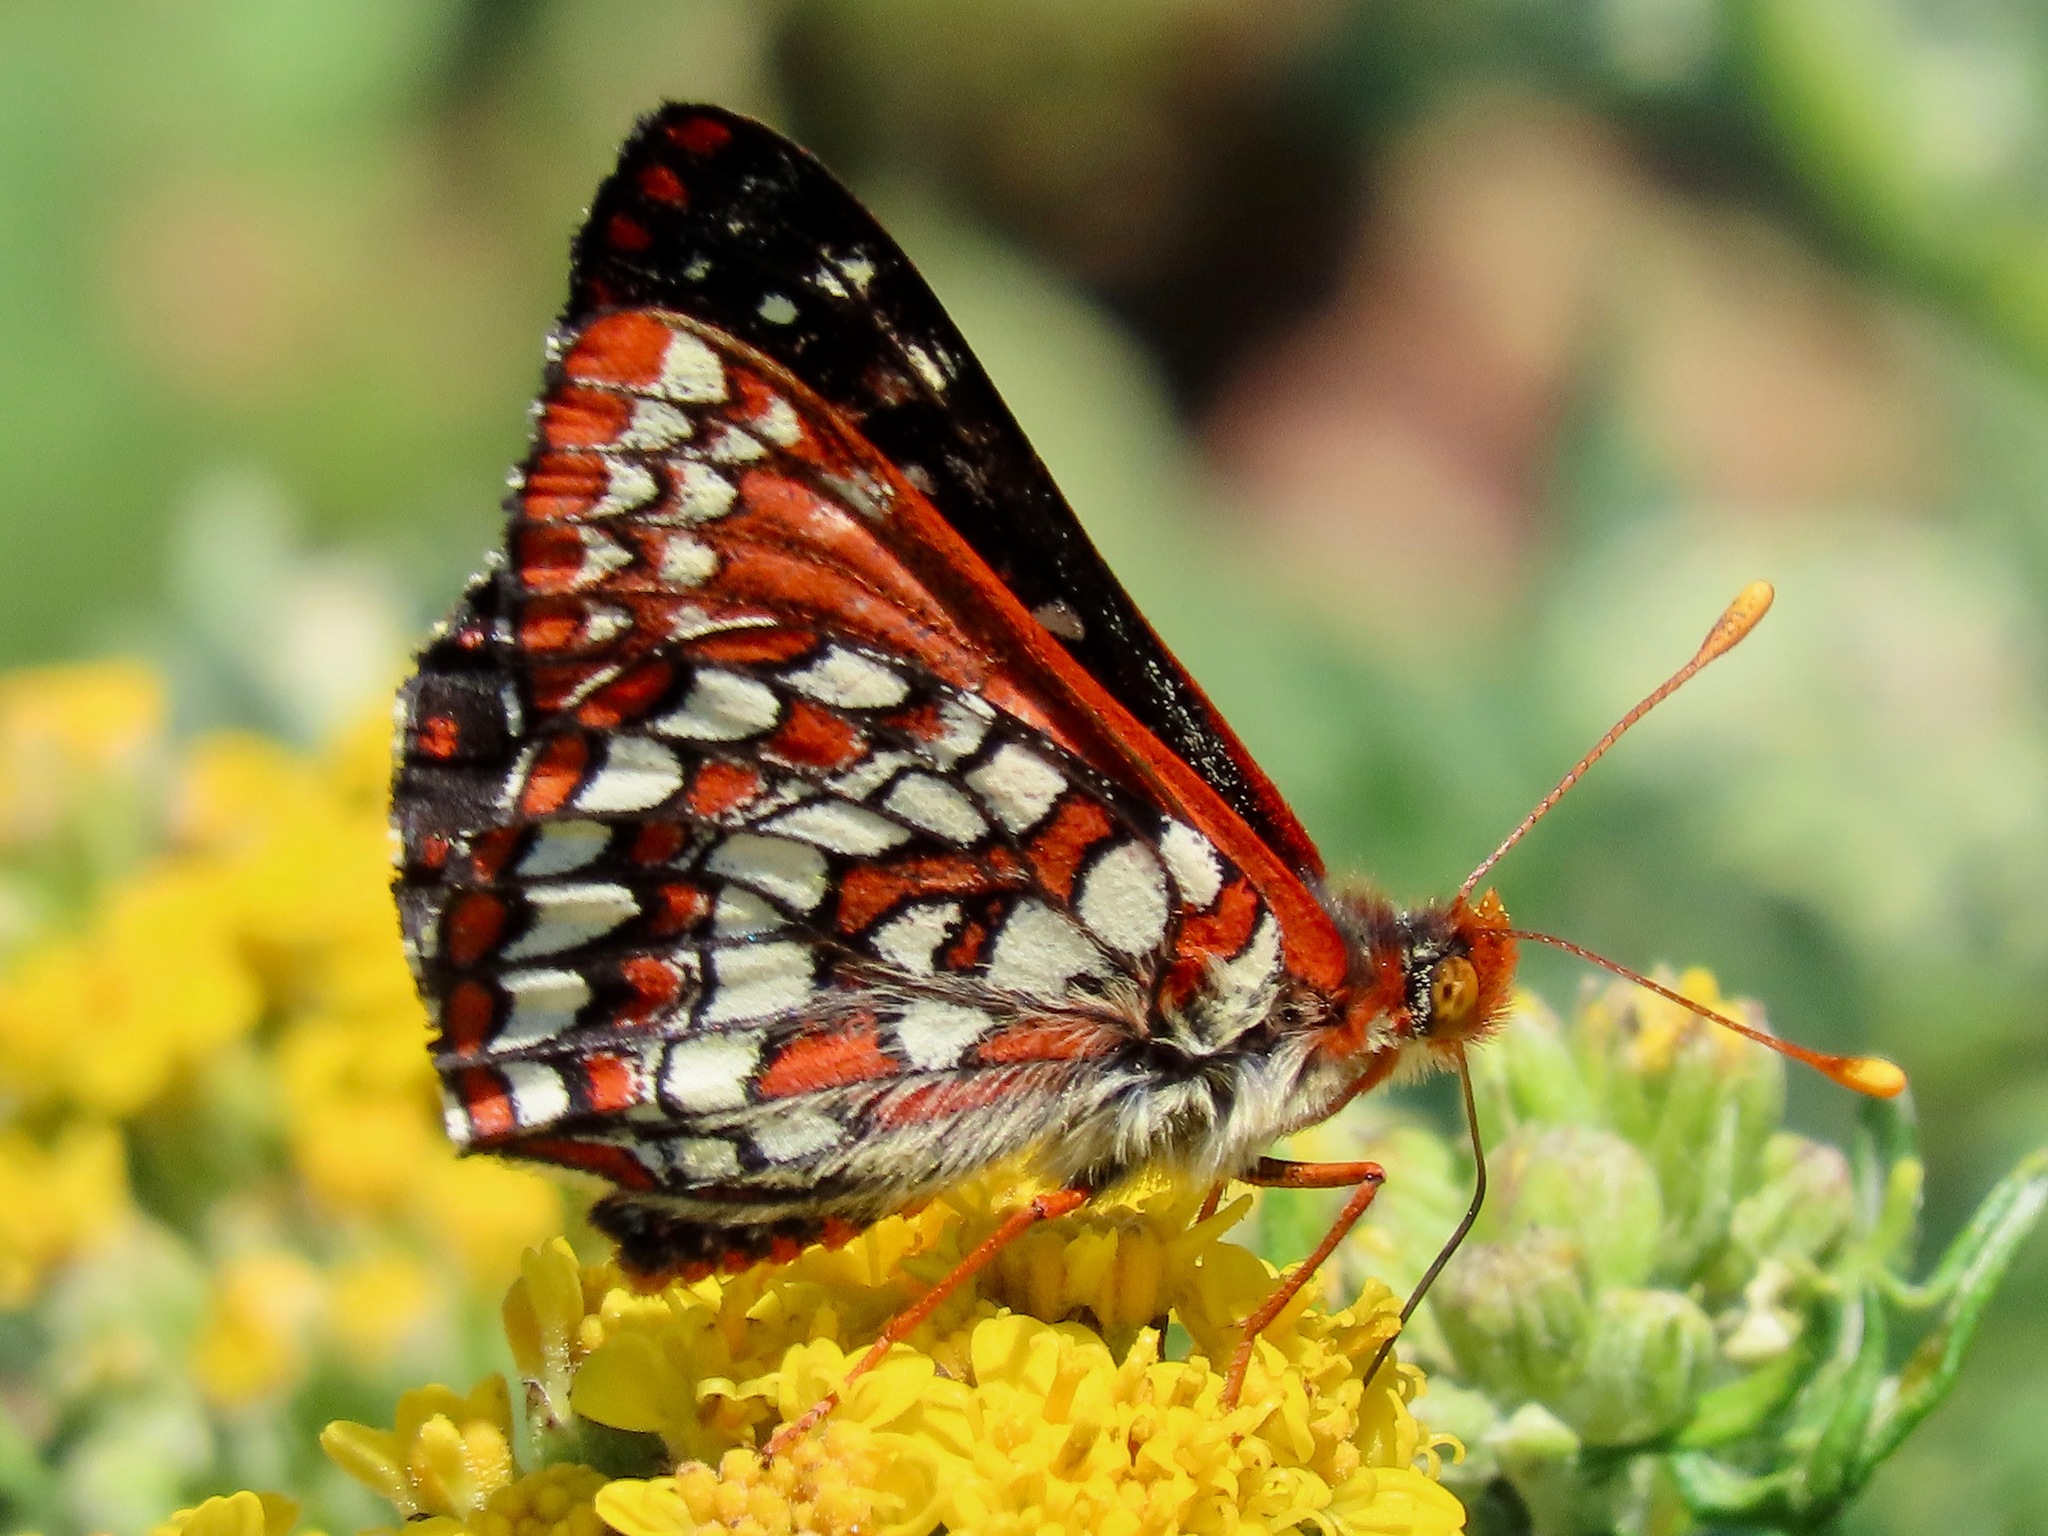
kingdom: Animalia
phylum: Arthropoda
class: Insecta
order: Lepidoptera
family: Nymphalidae
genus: Occidryas
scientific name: Occidryas chalcedona
